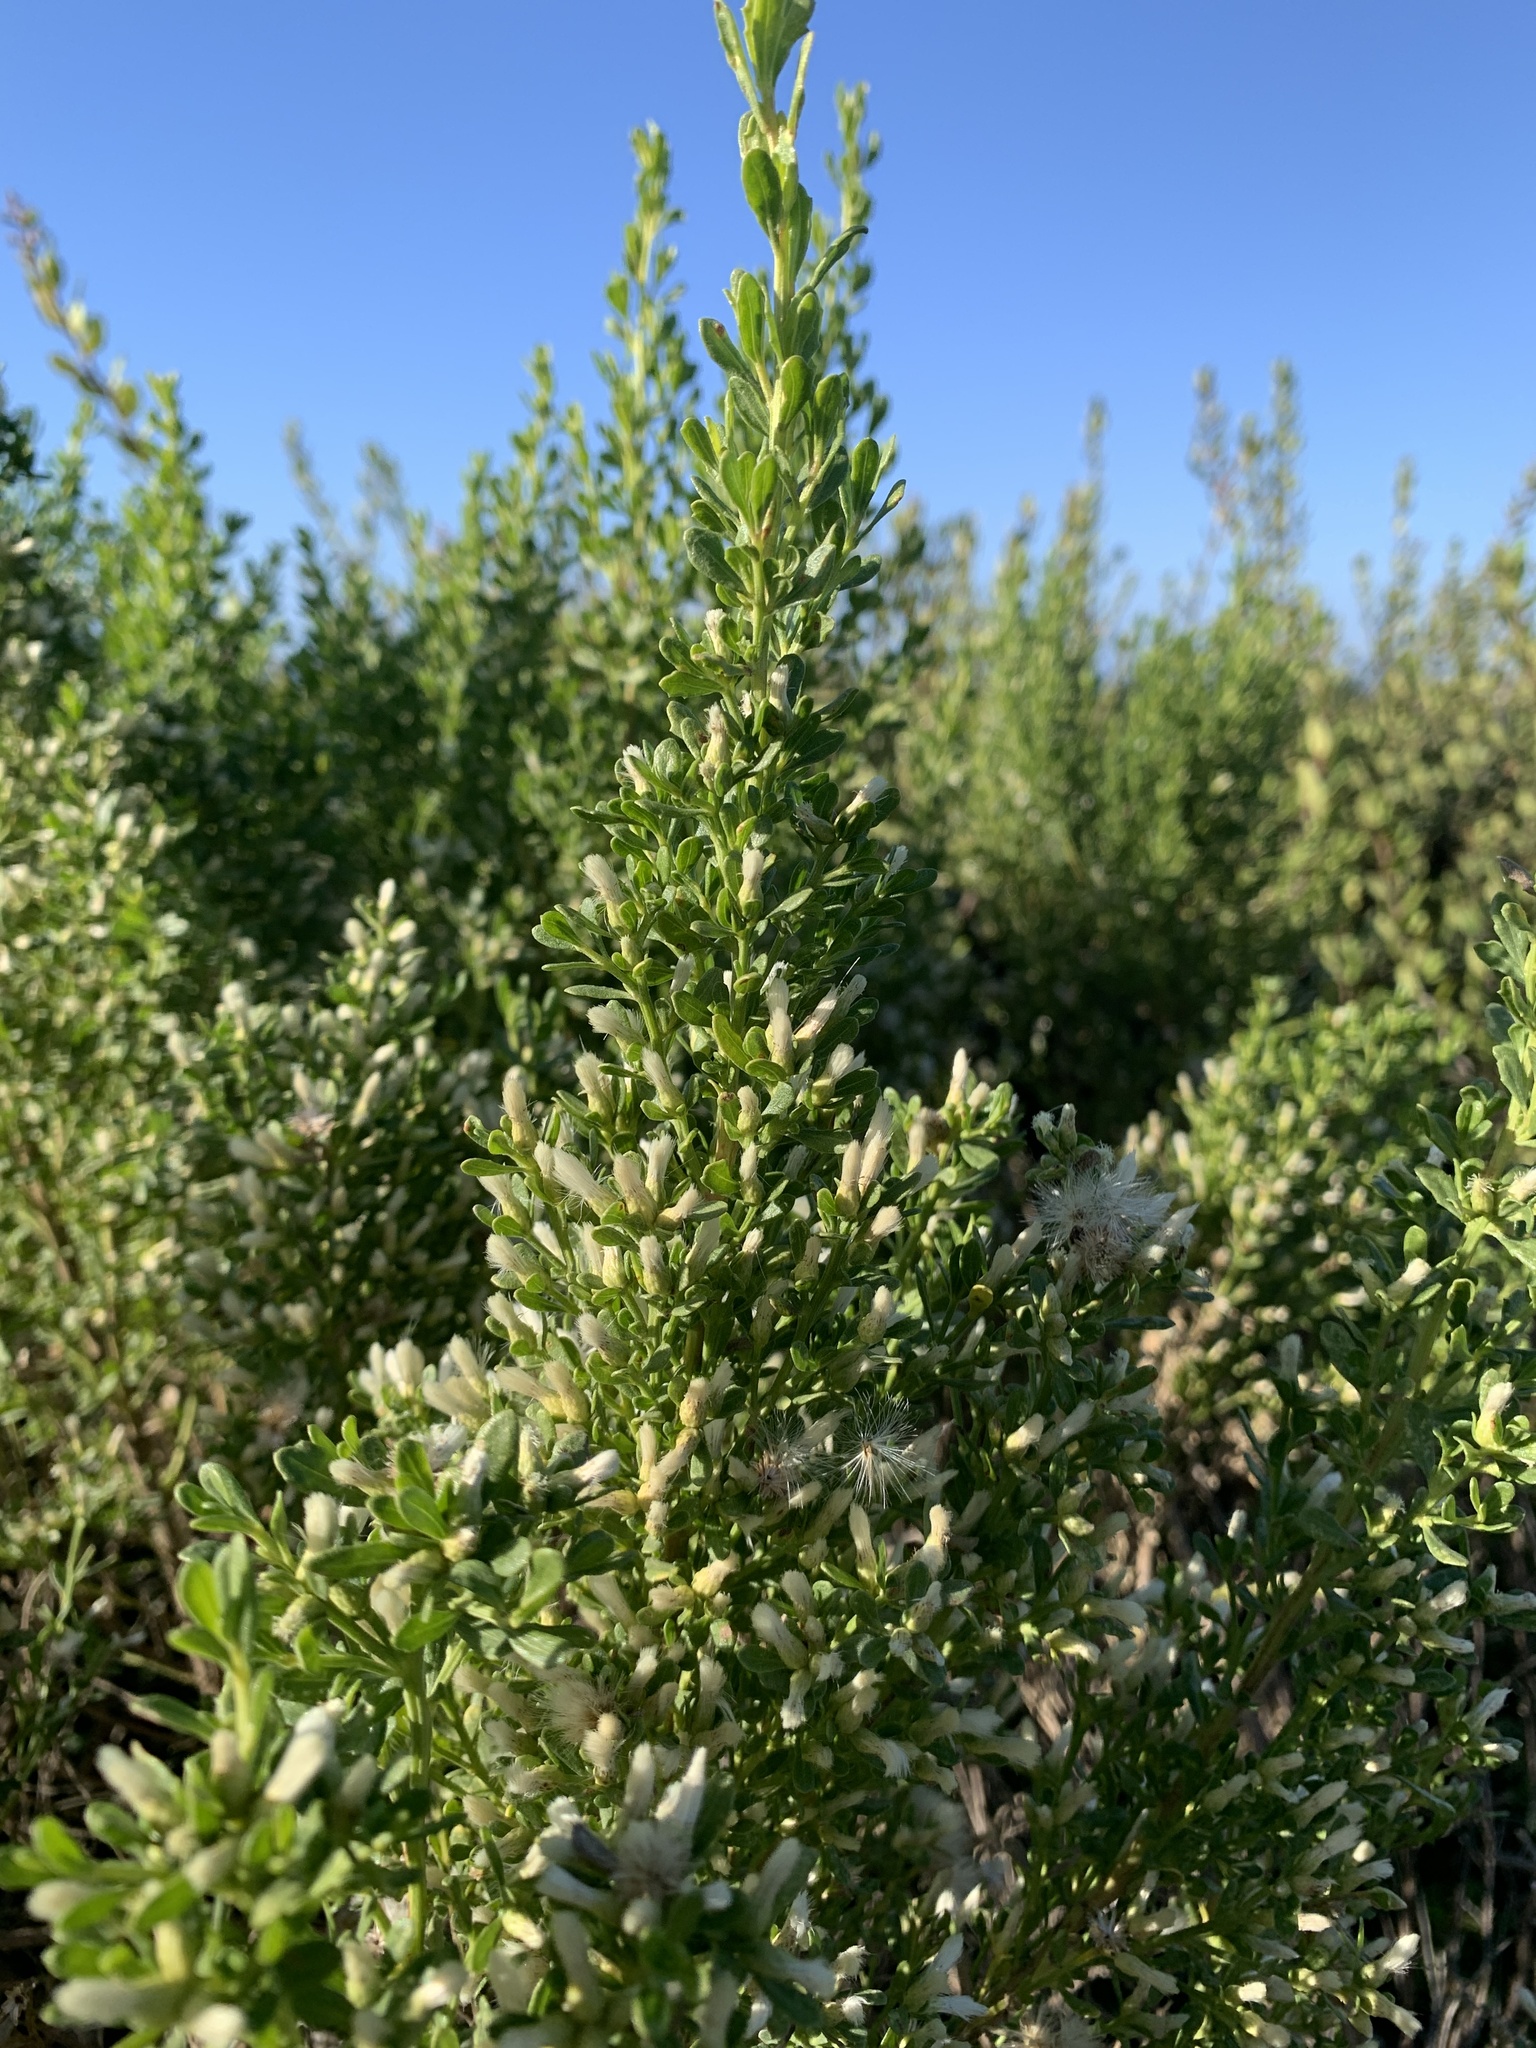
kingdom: Plantae
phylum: Tracheophyta
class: Magnoliopsida
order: Asterales
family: Asteraceae
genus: Baccharis
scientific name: Baccharis pilularis
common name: Coyotebrush
